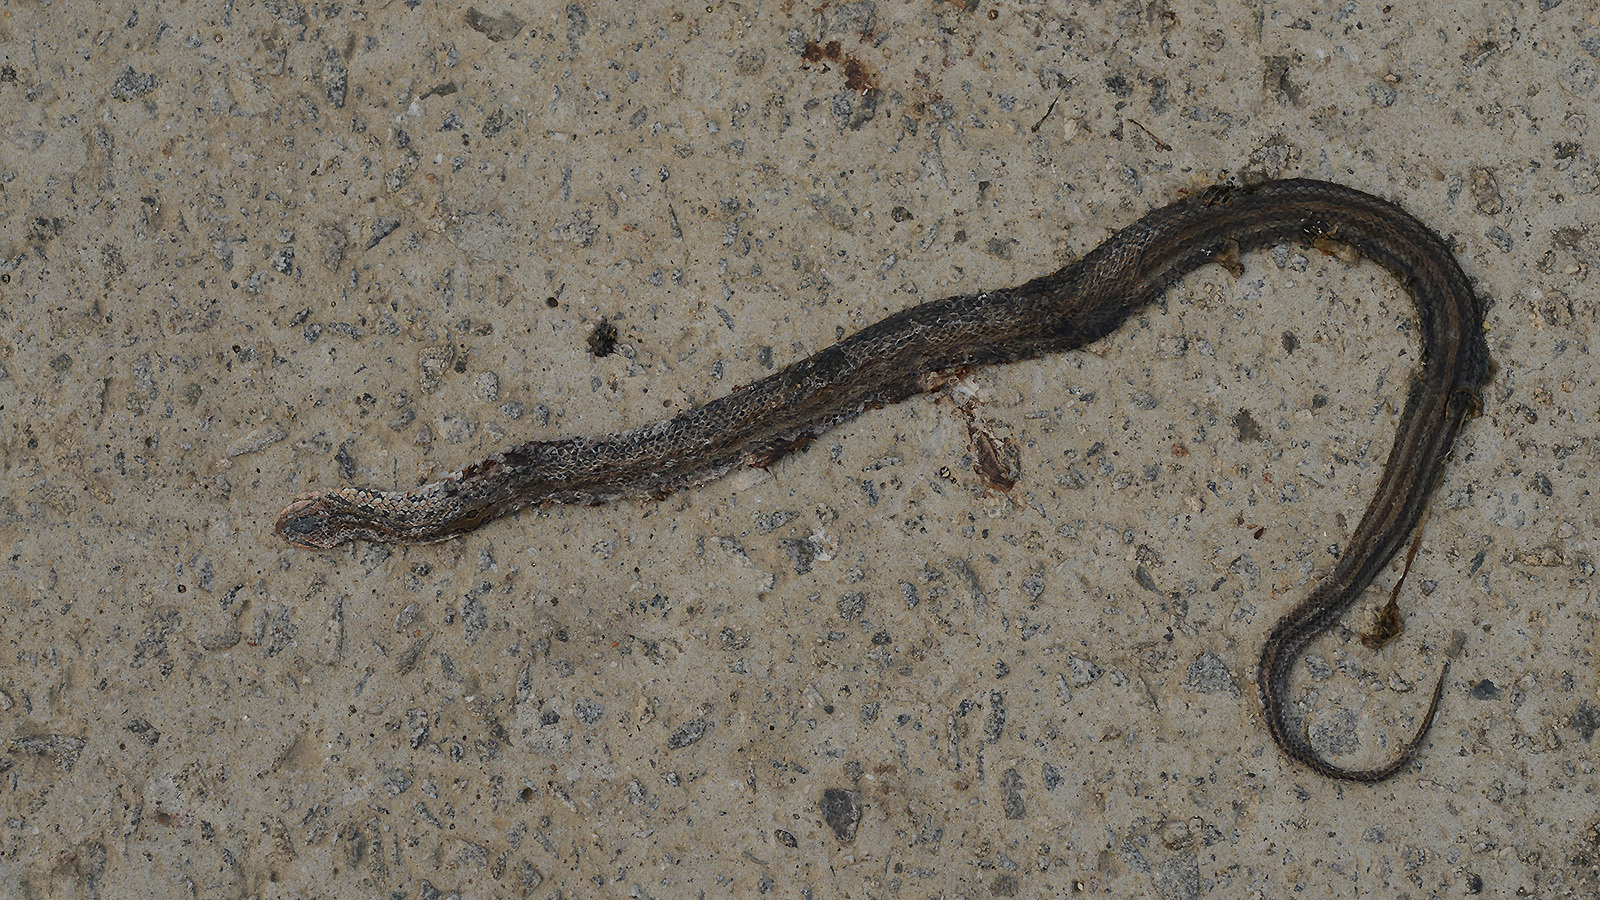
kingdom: Animalia
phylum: Chordata
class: Squamata
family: Colubridae
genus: Oocatochus
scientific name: Oocatochus rufodorsatus
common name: Frog-eating rat snake
